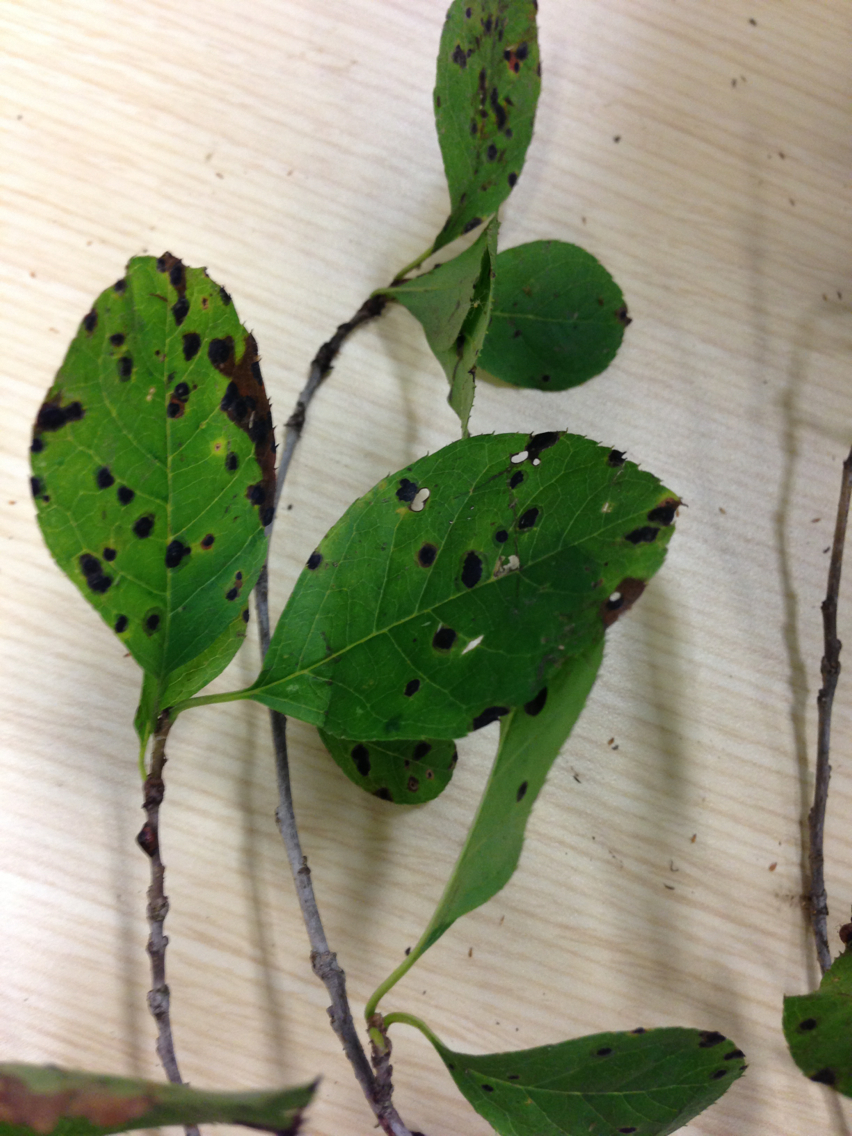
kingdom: Plantae
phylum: Tracheophyta
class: Magnoliopsida
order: Aquifoliales
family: Aquifoliaceae
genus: Ilex
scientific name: Ilex verticillata
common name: Virginia winterberry
